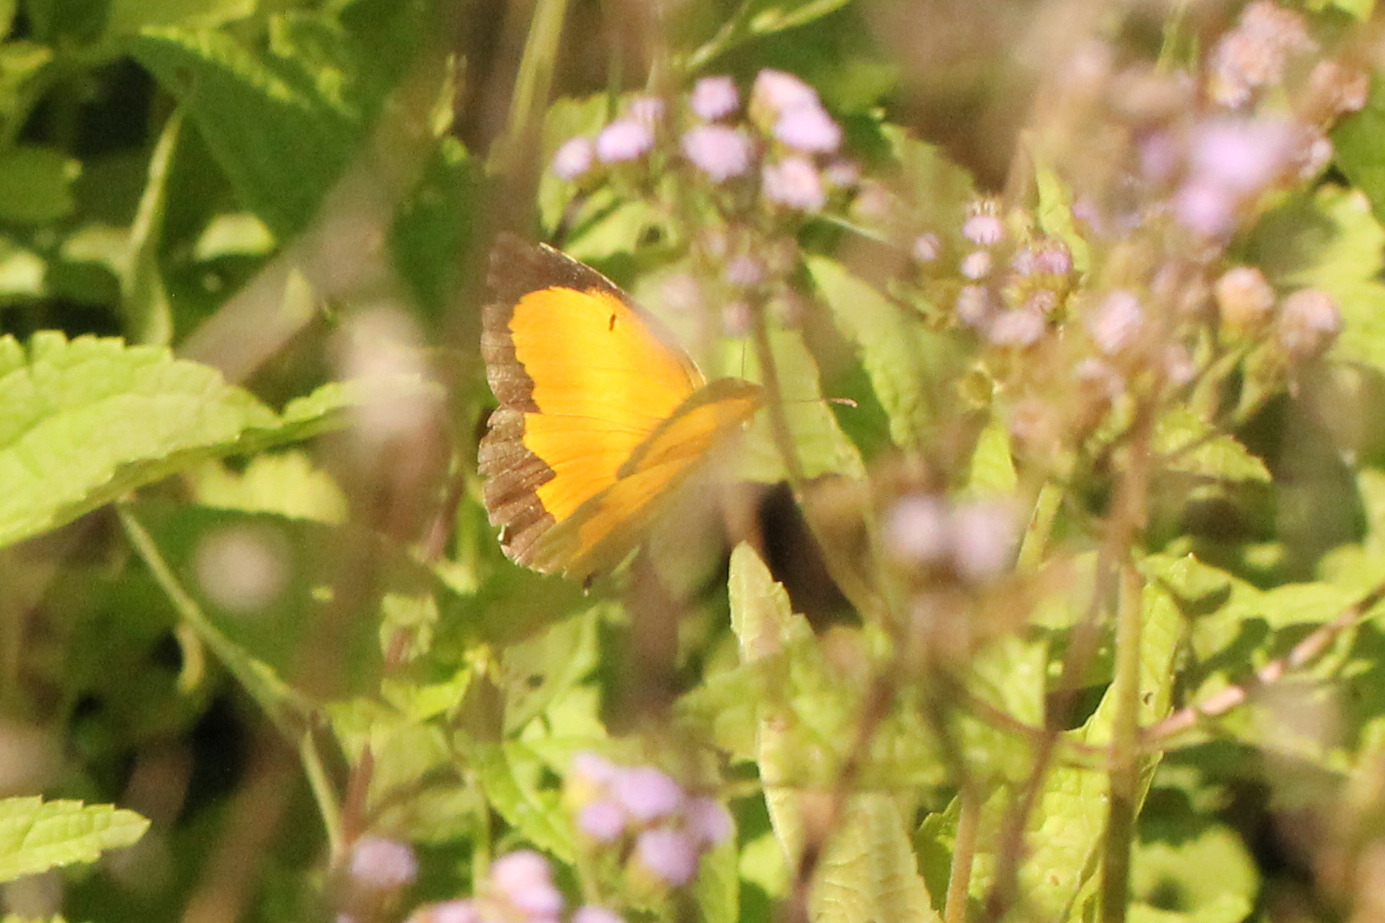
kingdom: Animalia
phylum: Arthropoda
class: Insecta
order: Lepidoptera
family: Pieridae
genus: Abaeis
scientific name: Abaeis nicippe
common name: Sleepy orange
